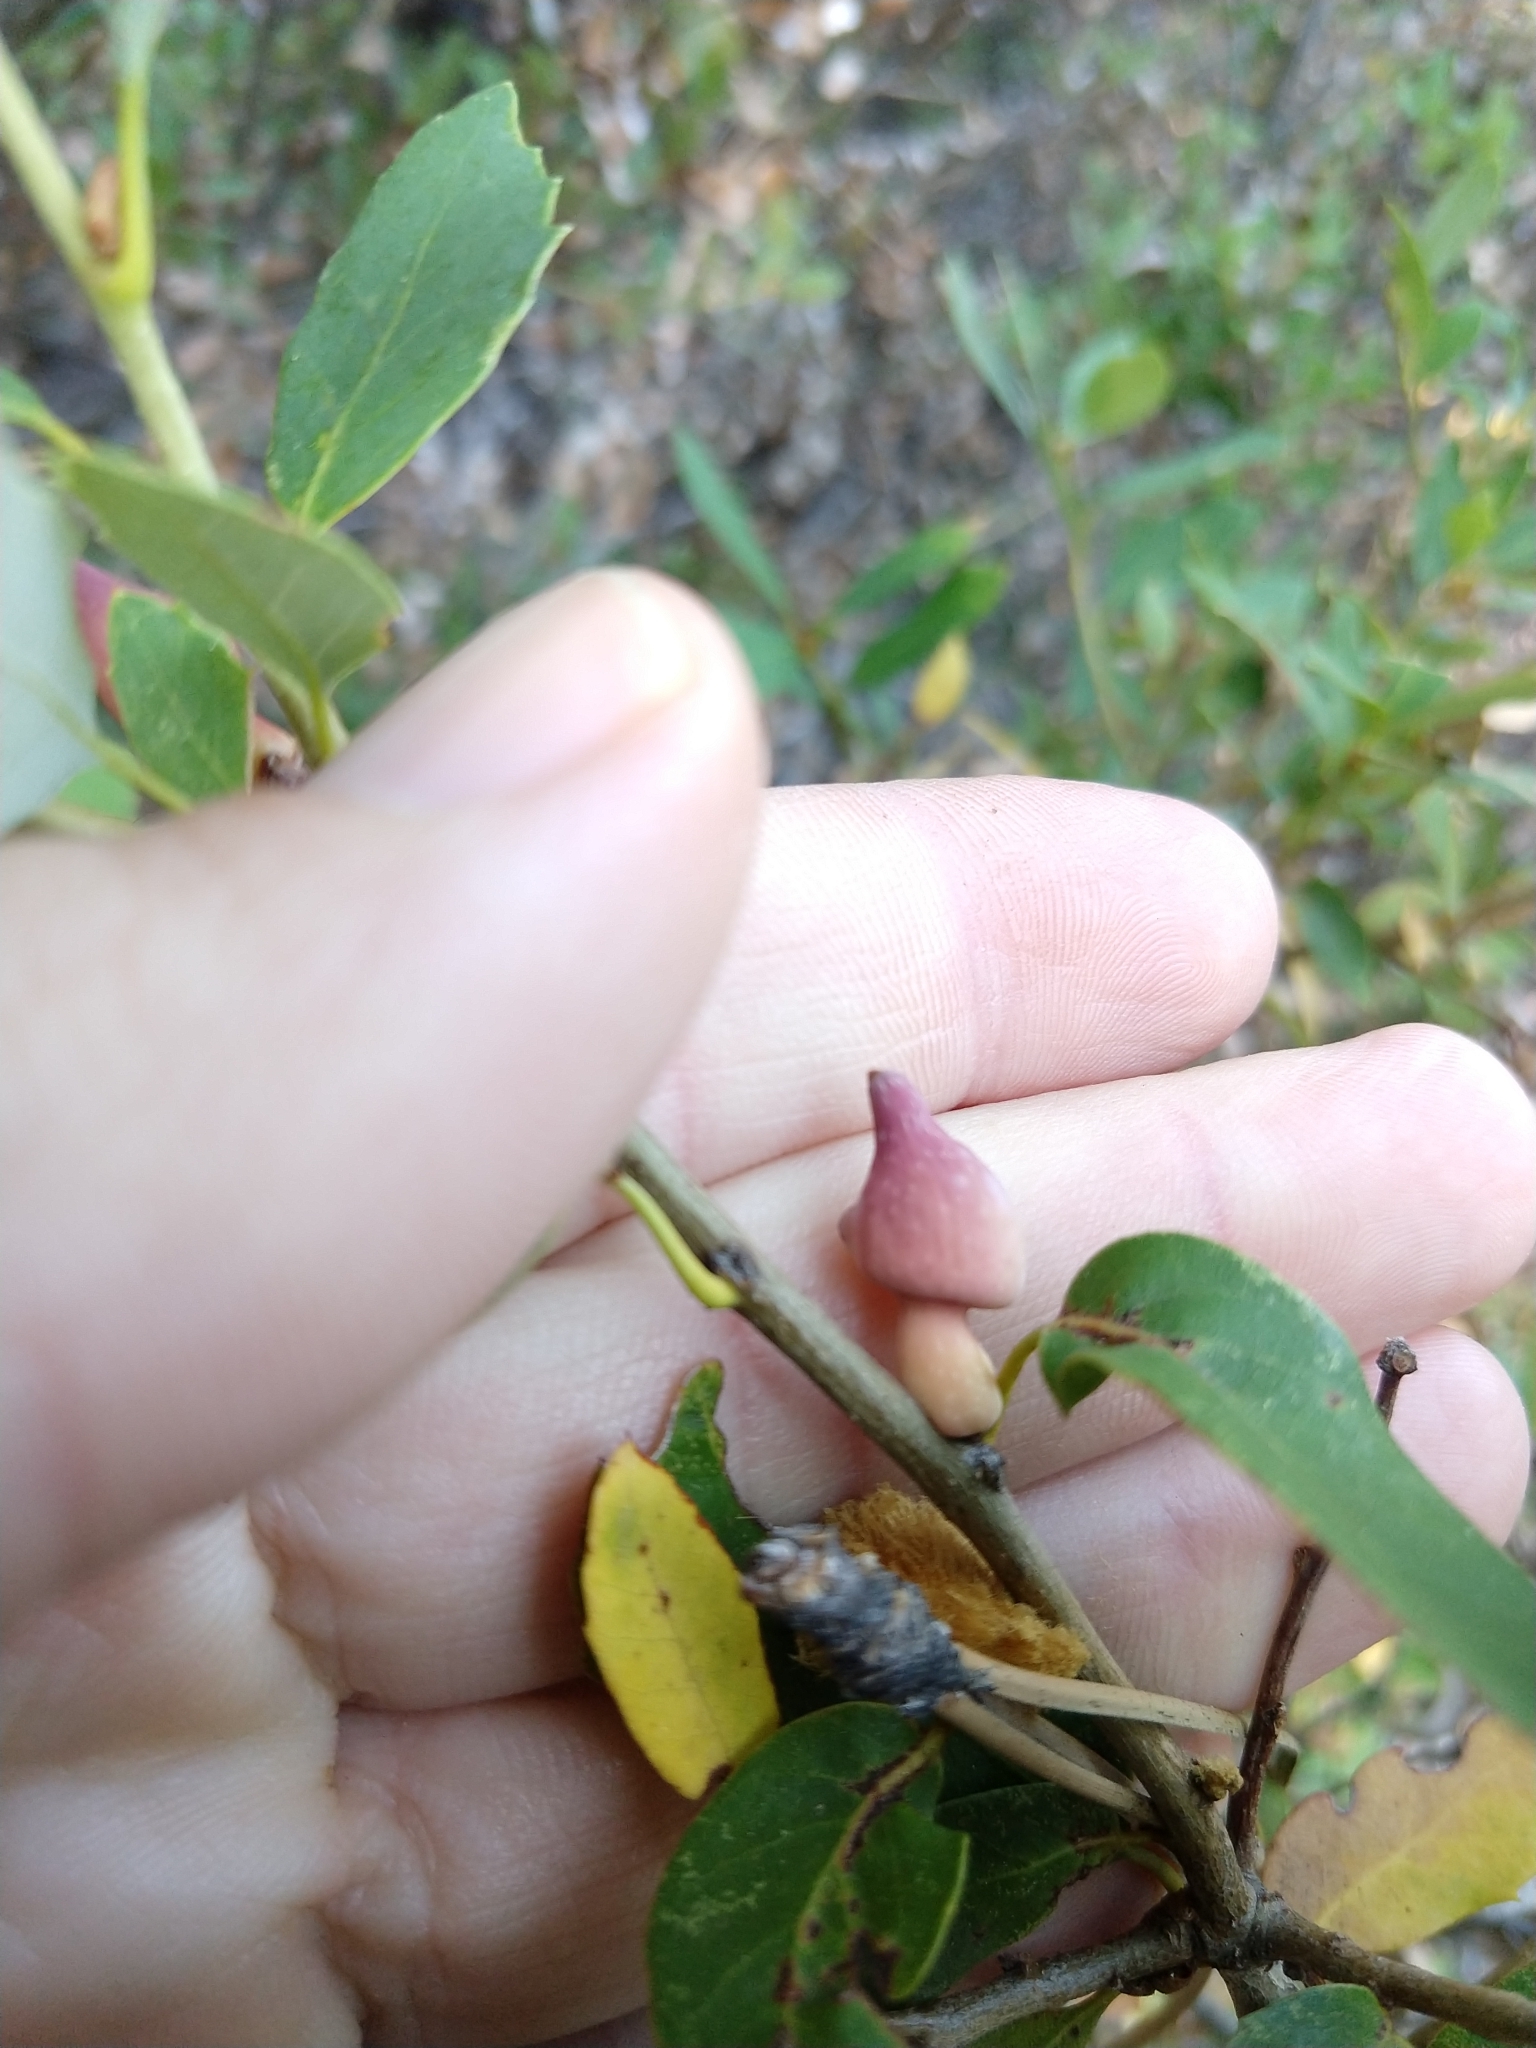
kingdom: Animalia
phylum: Arthropoda
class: Insecta
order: Hymenoptera
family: Cynipidae
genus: Heteroecus
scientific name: Heteroecus
